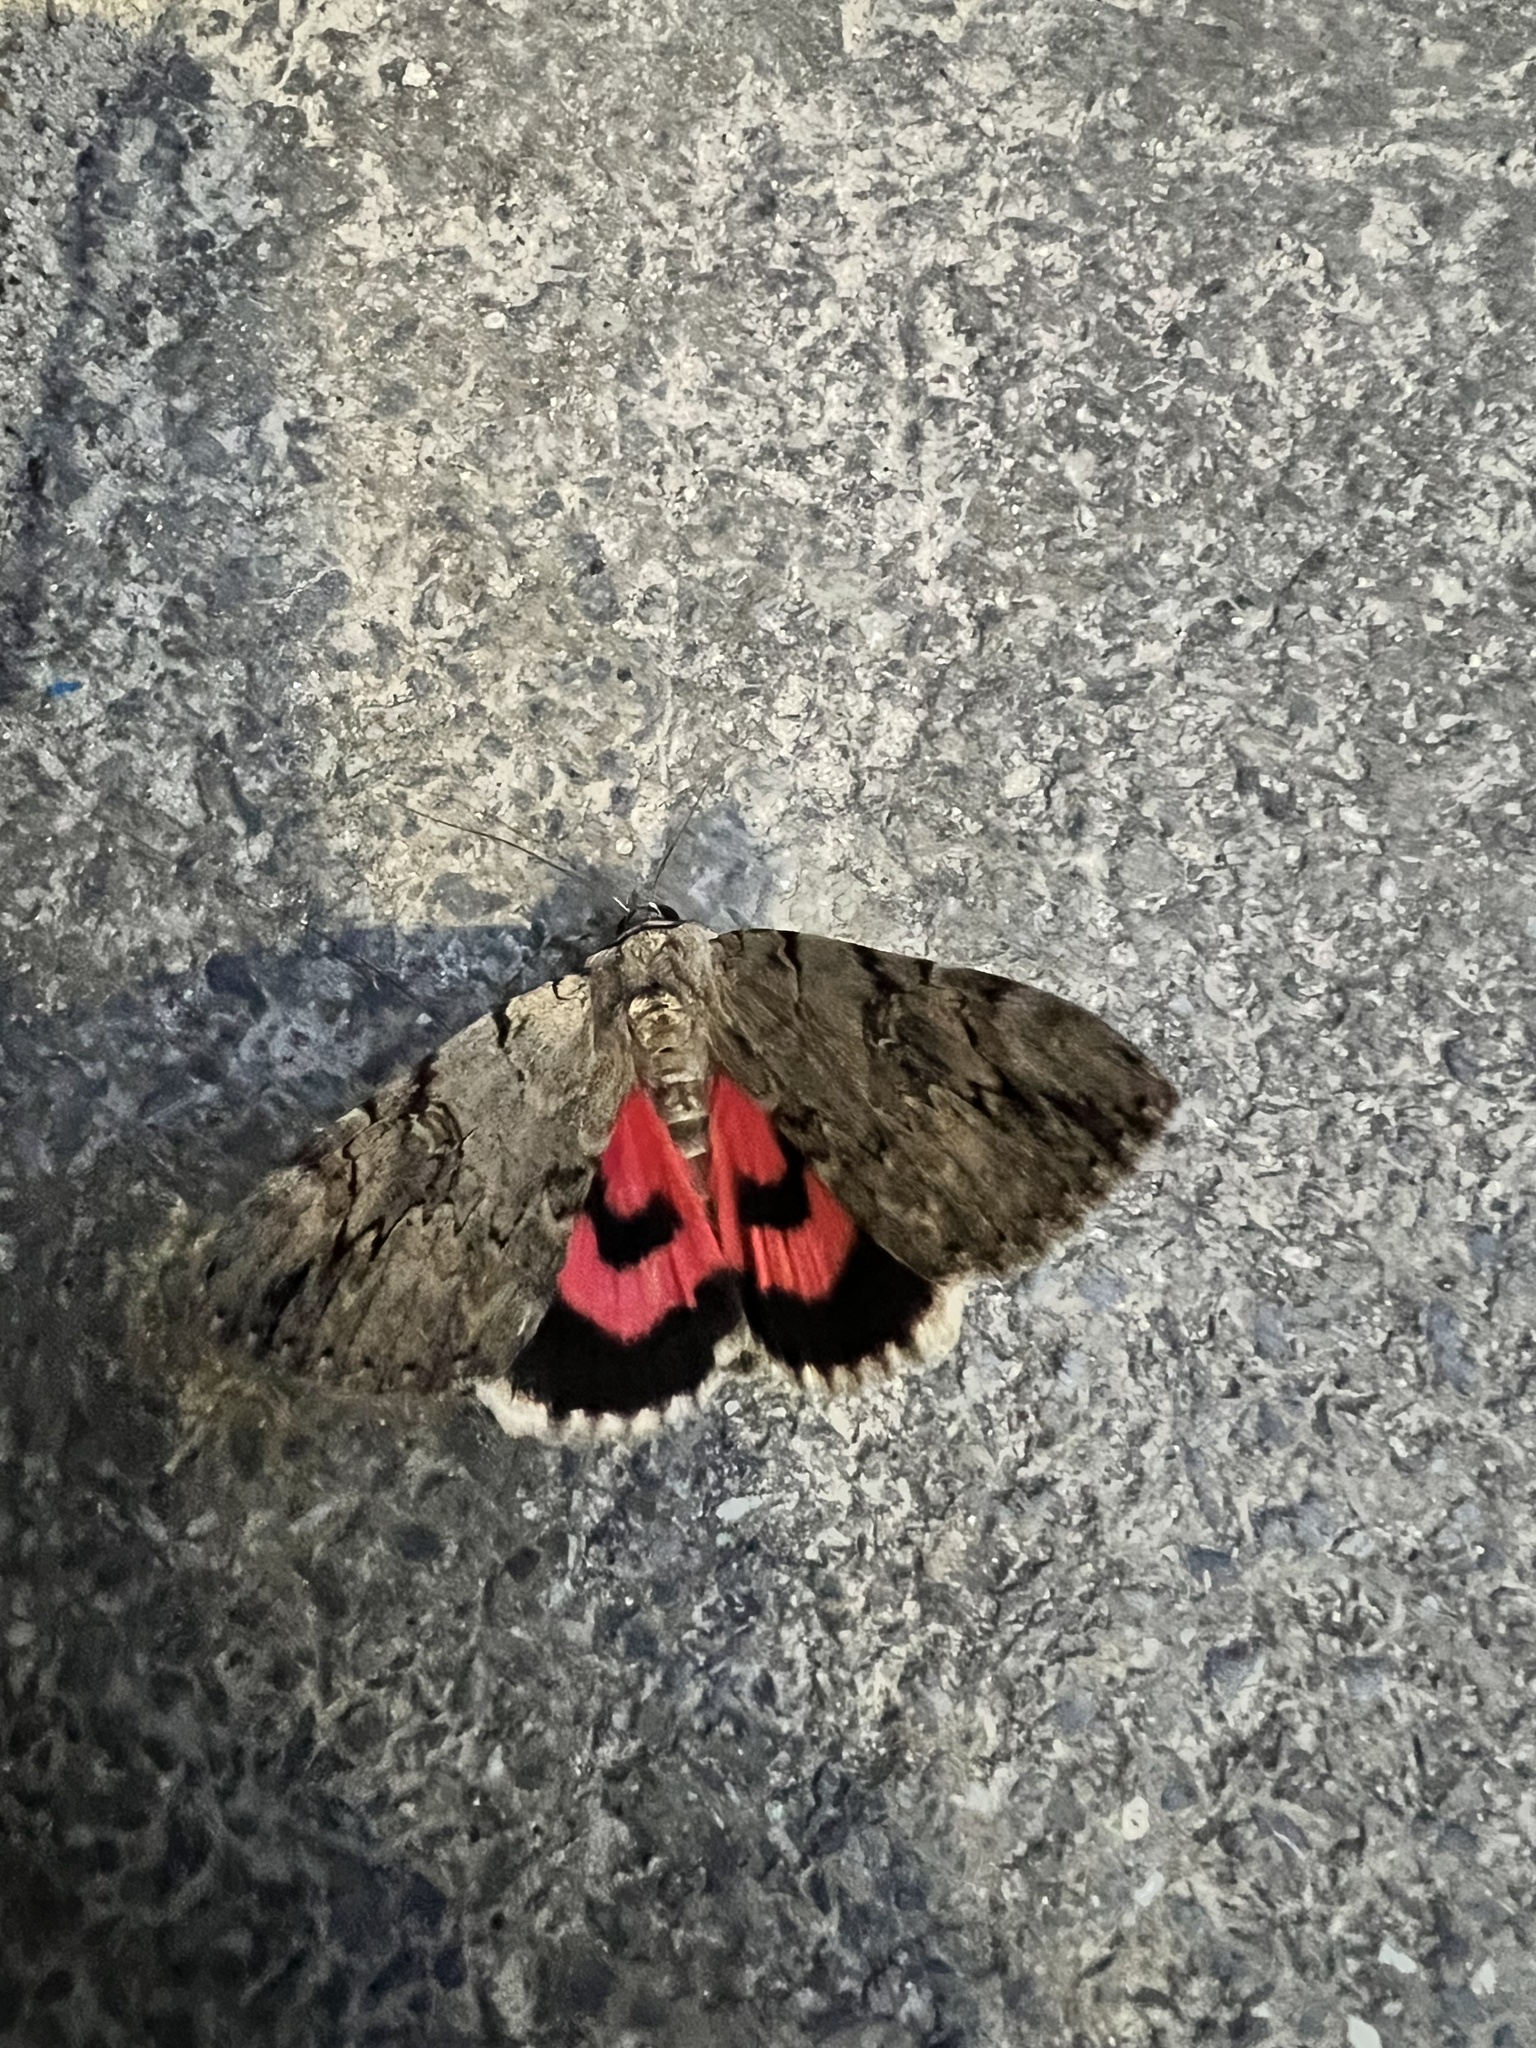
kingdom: Animalia
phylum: Arthropoda
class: Insecta
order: Lepidoptera
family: Erebidae
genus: Catocala
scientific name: Catocala electa
